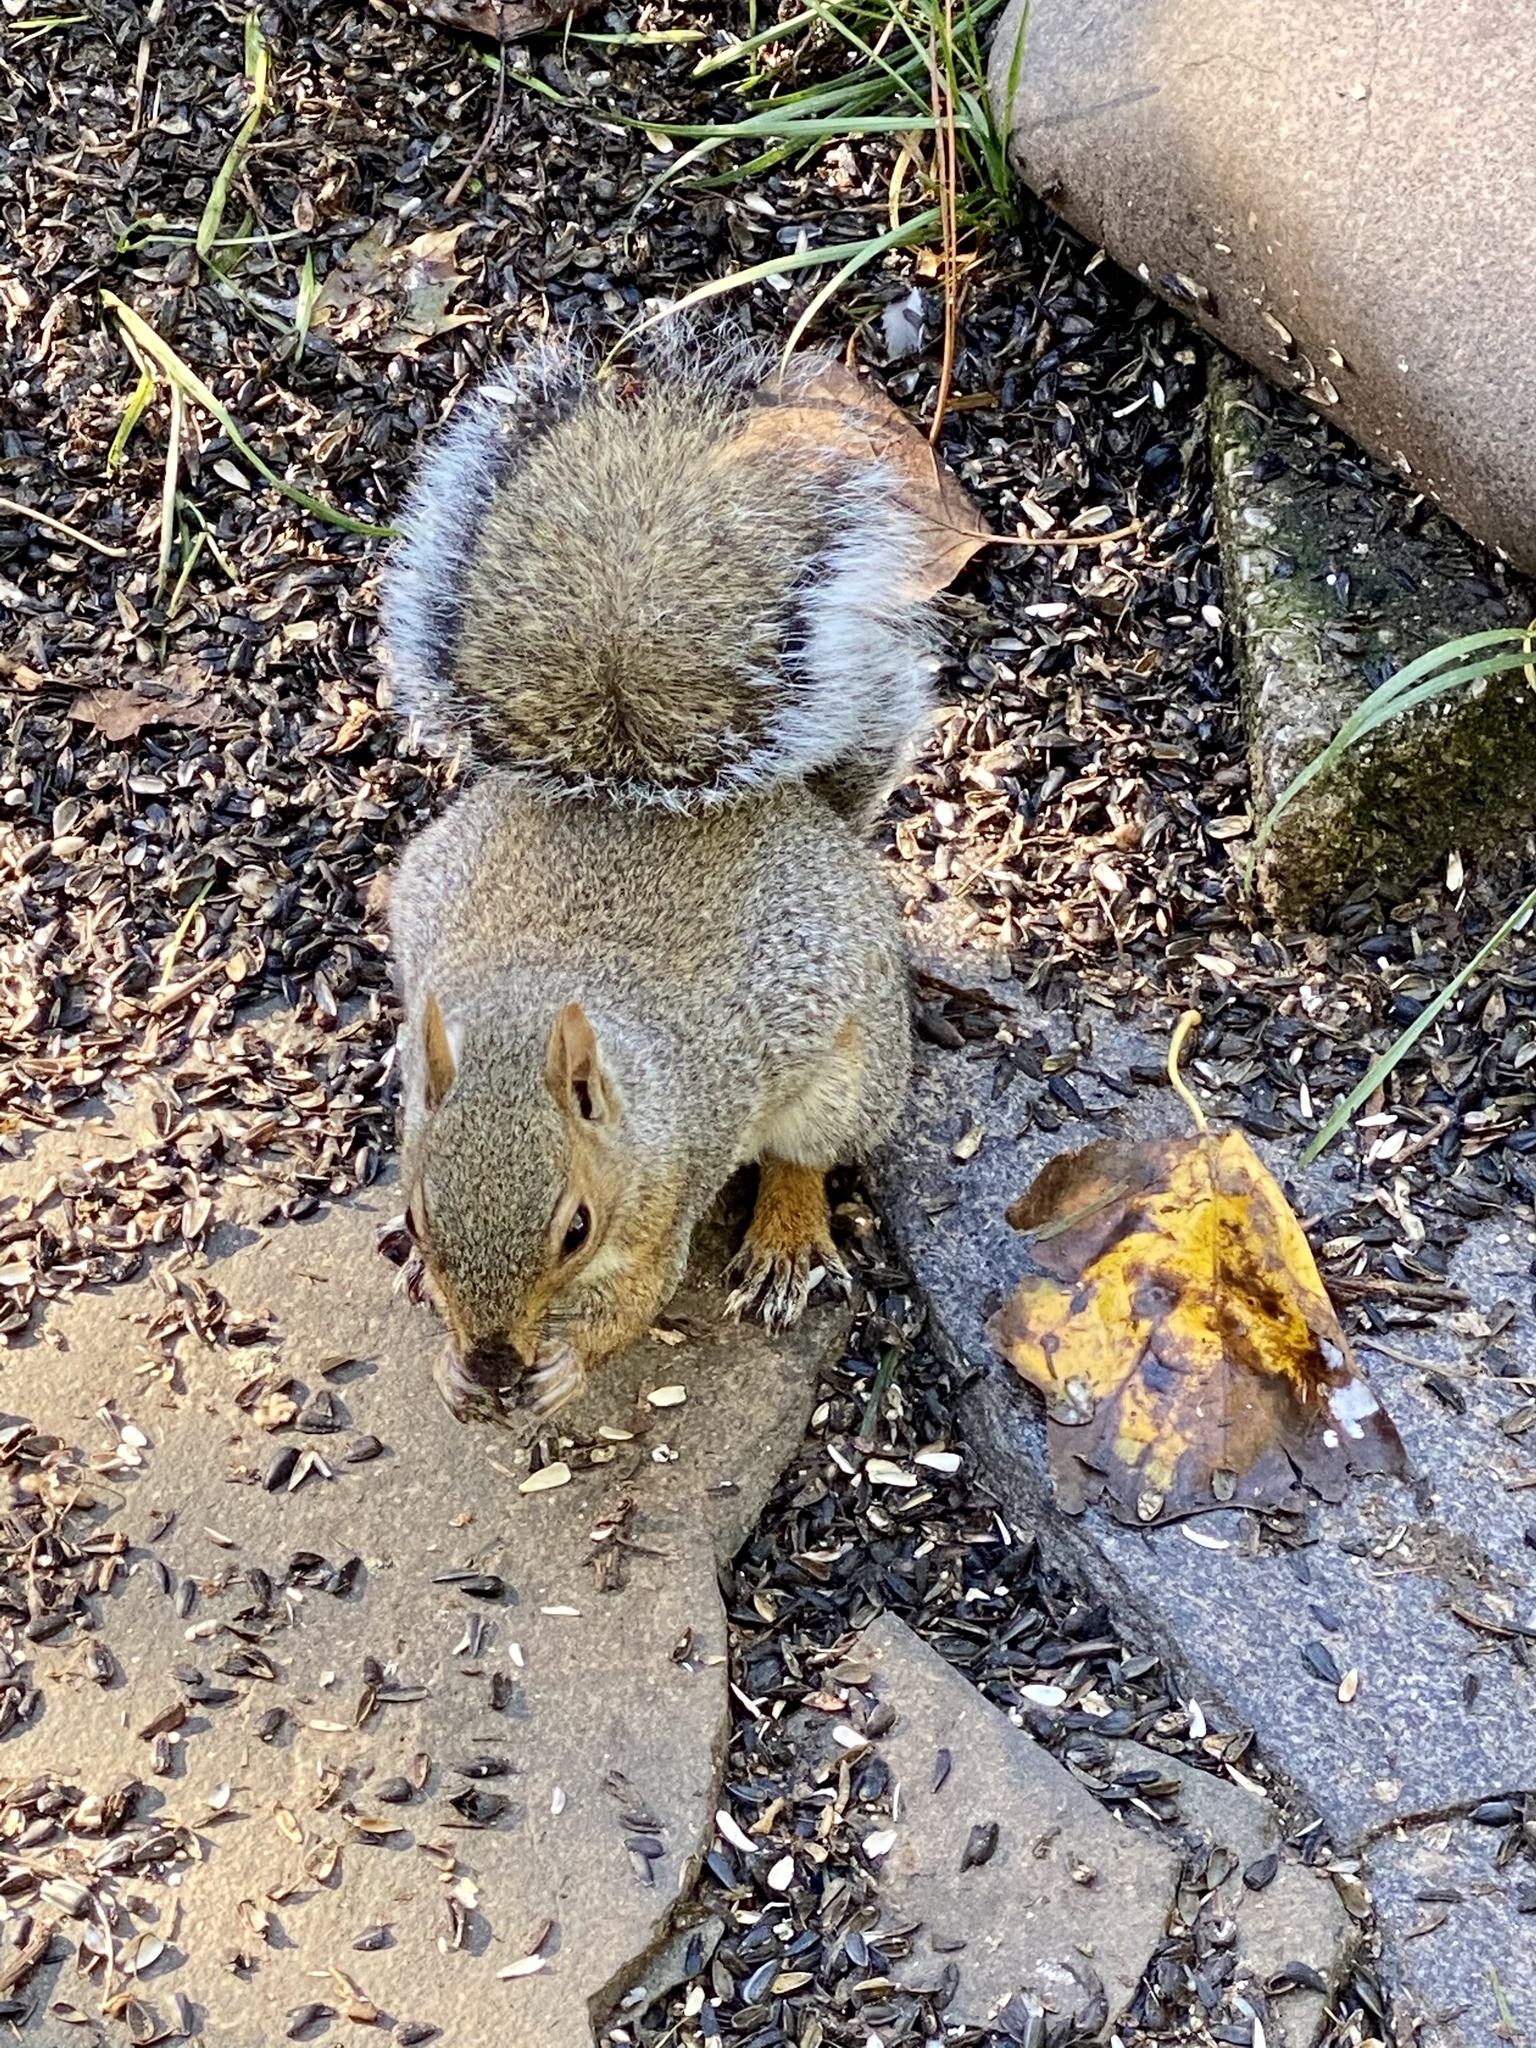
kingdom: Animalia
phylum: Chordata
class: Mammalia
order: Rodentia
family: Sciuridae
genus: Sciurus
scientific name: Sciurus carolinensis
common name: Eastern gray squirrel
